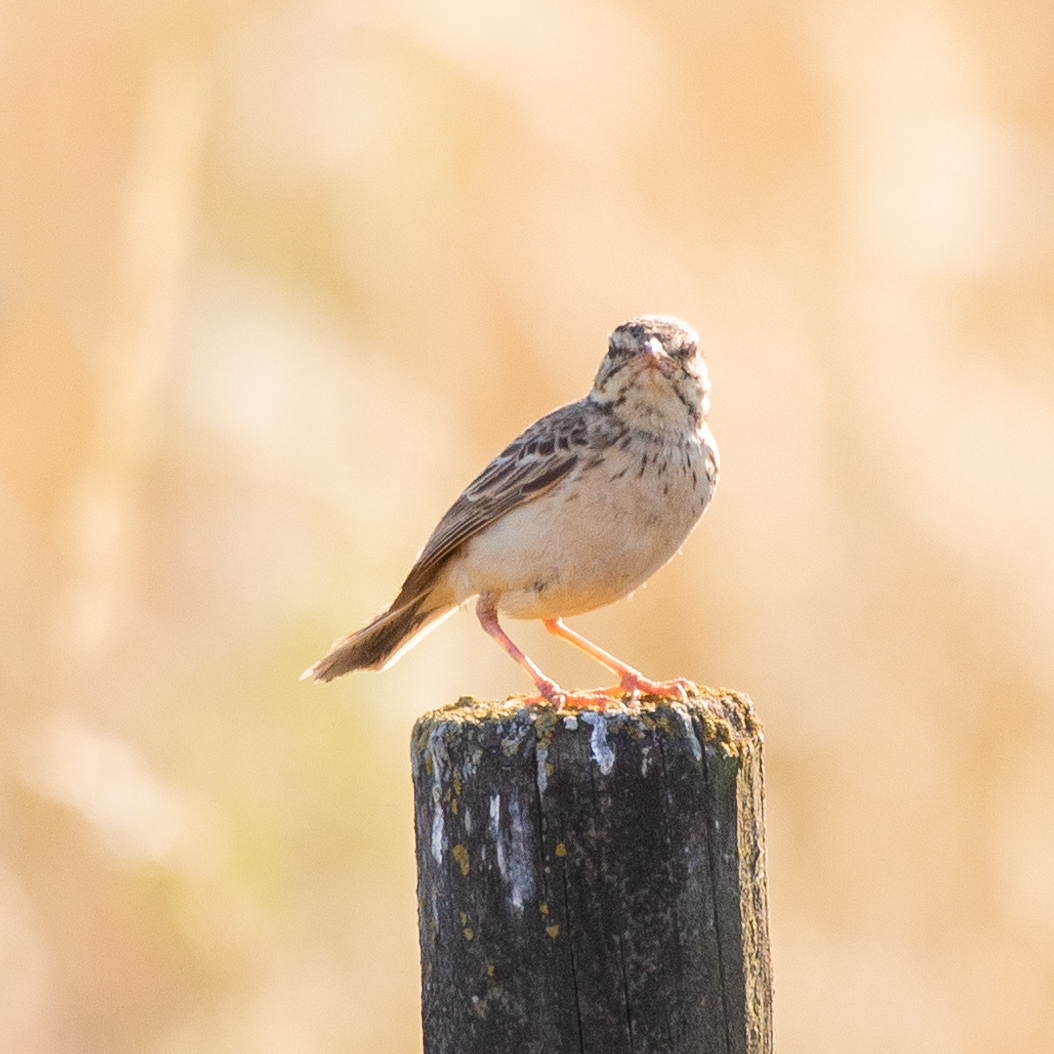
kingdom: Animalia
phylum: Chordata
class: Aves
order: Passeriformes
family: Motacillidae
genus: Anthus
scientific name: Anthus campestris
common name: Tawny pipit
